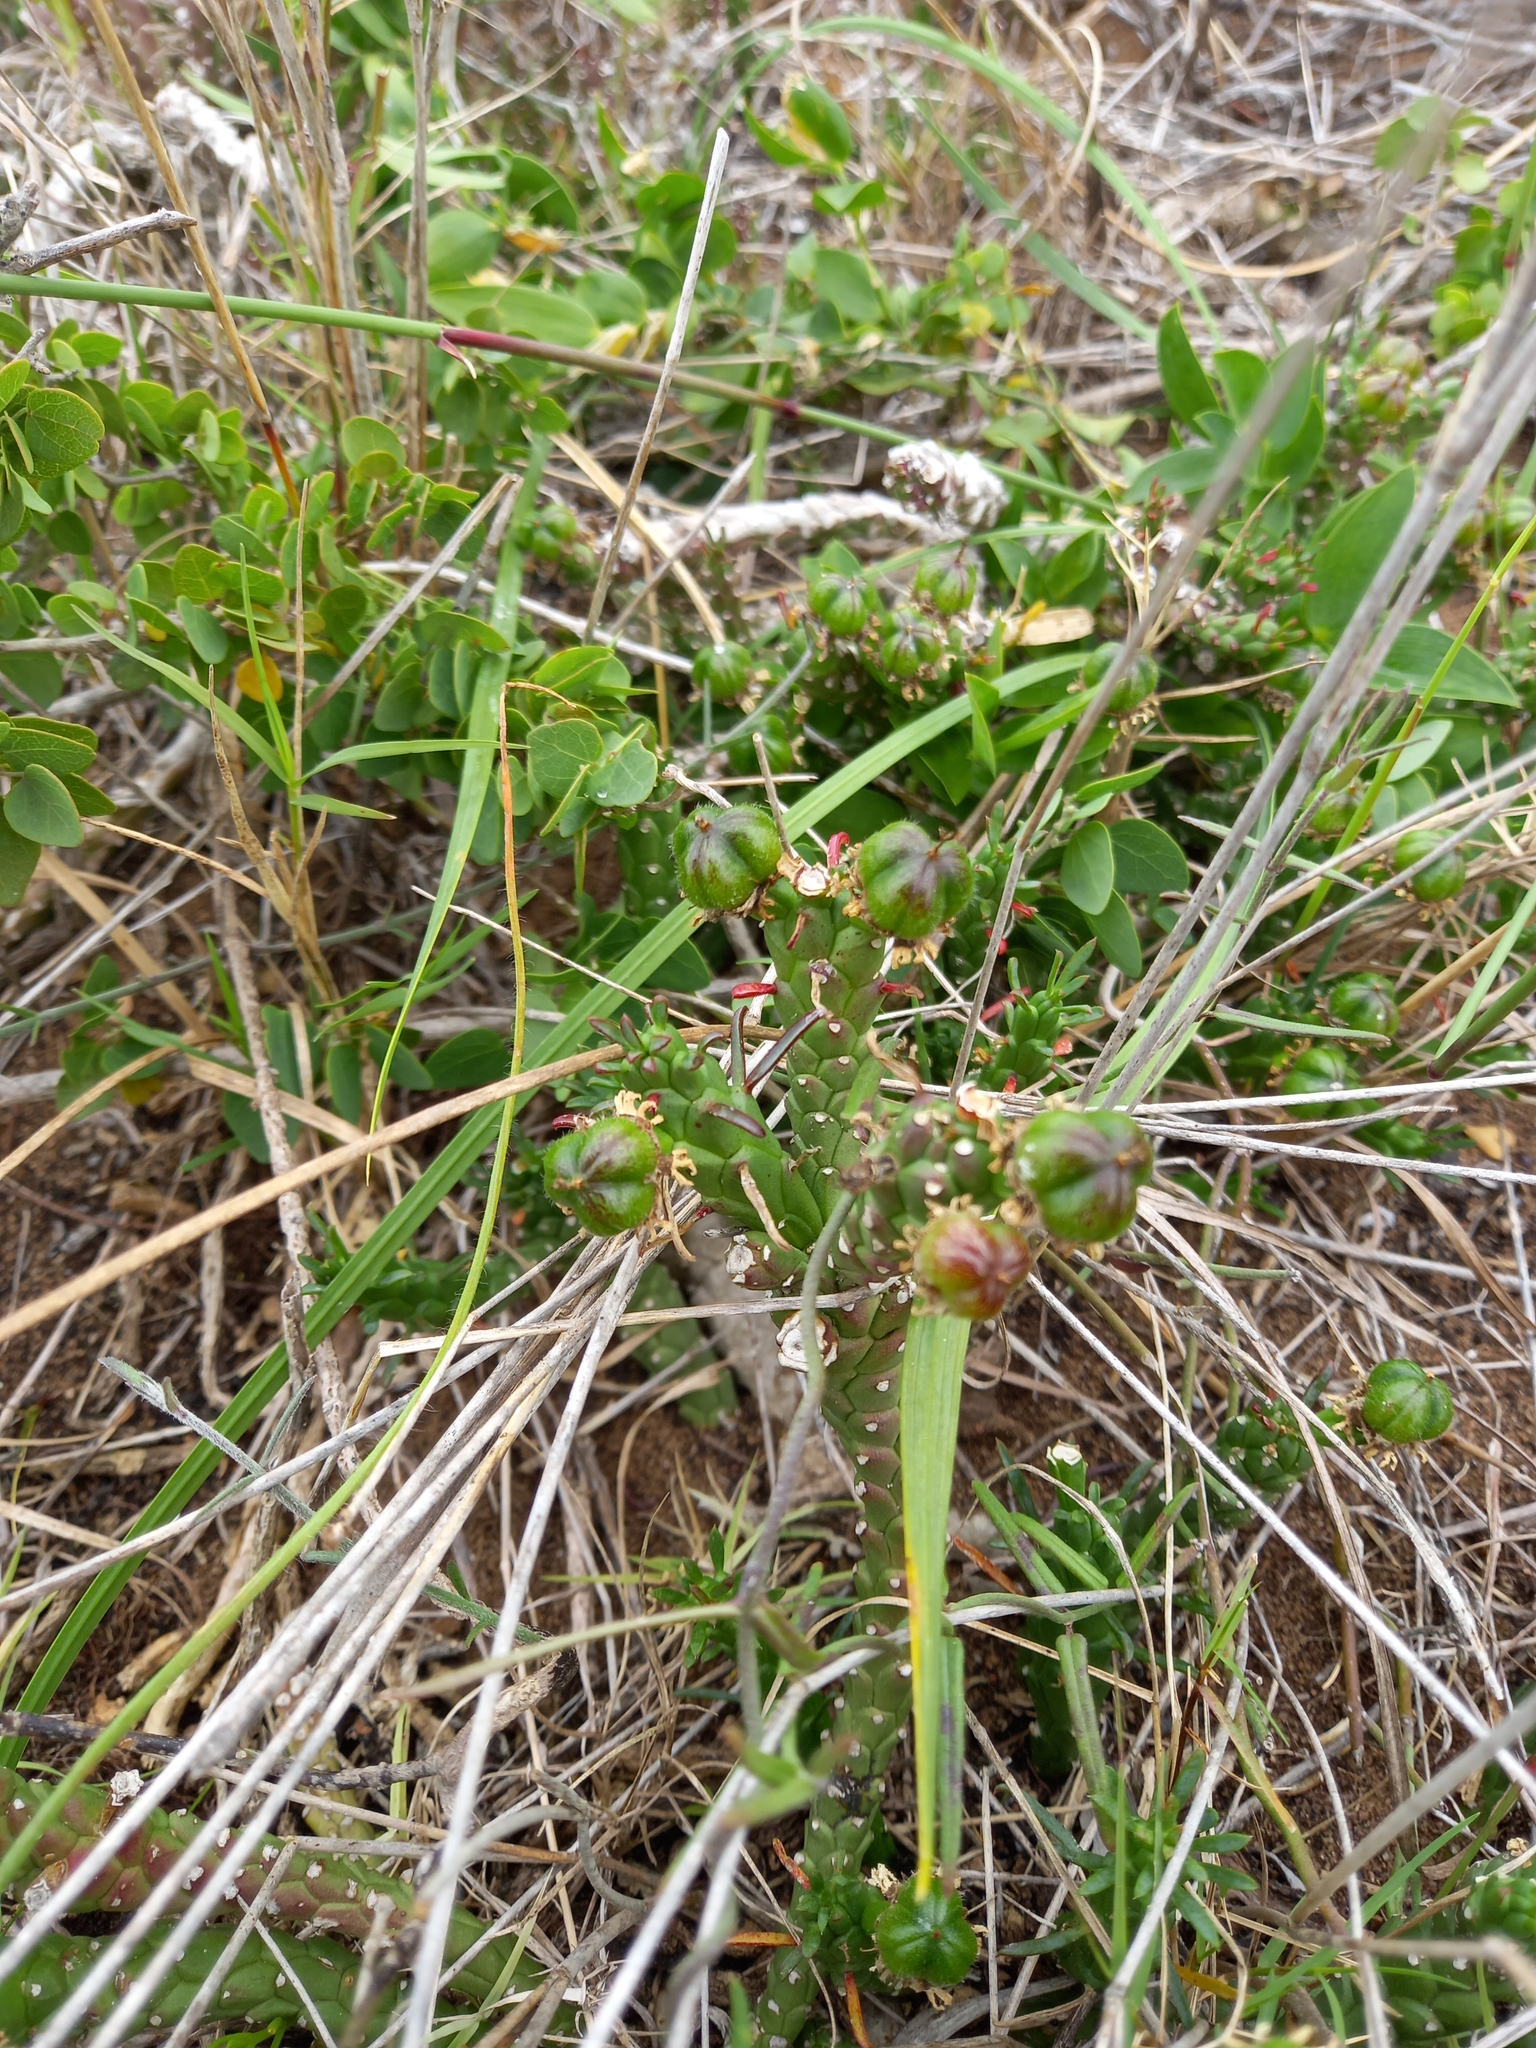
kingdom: Plantae
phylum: Tracheophyta
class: Magnoliopsida
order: Malpighiales
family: Euphorbiaceae
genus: Euphorbia
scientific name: Euphorbia caput-medusae
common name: Medusa's-head
